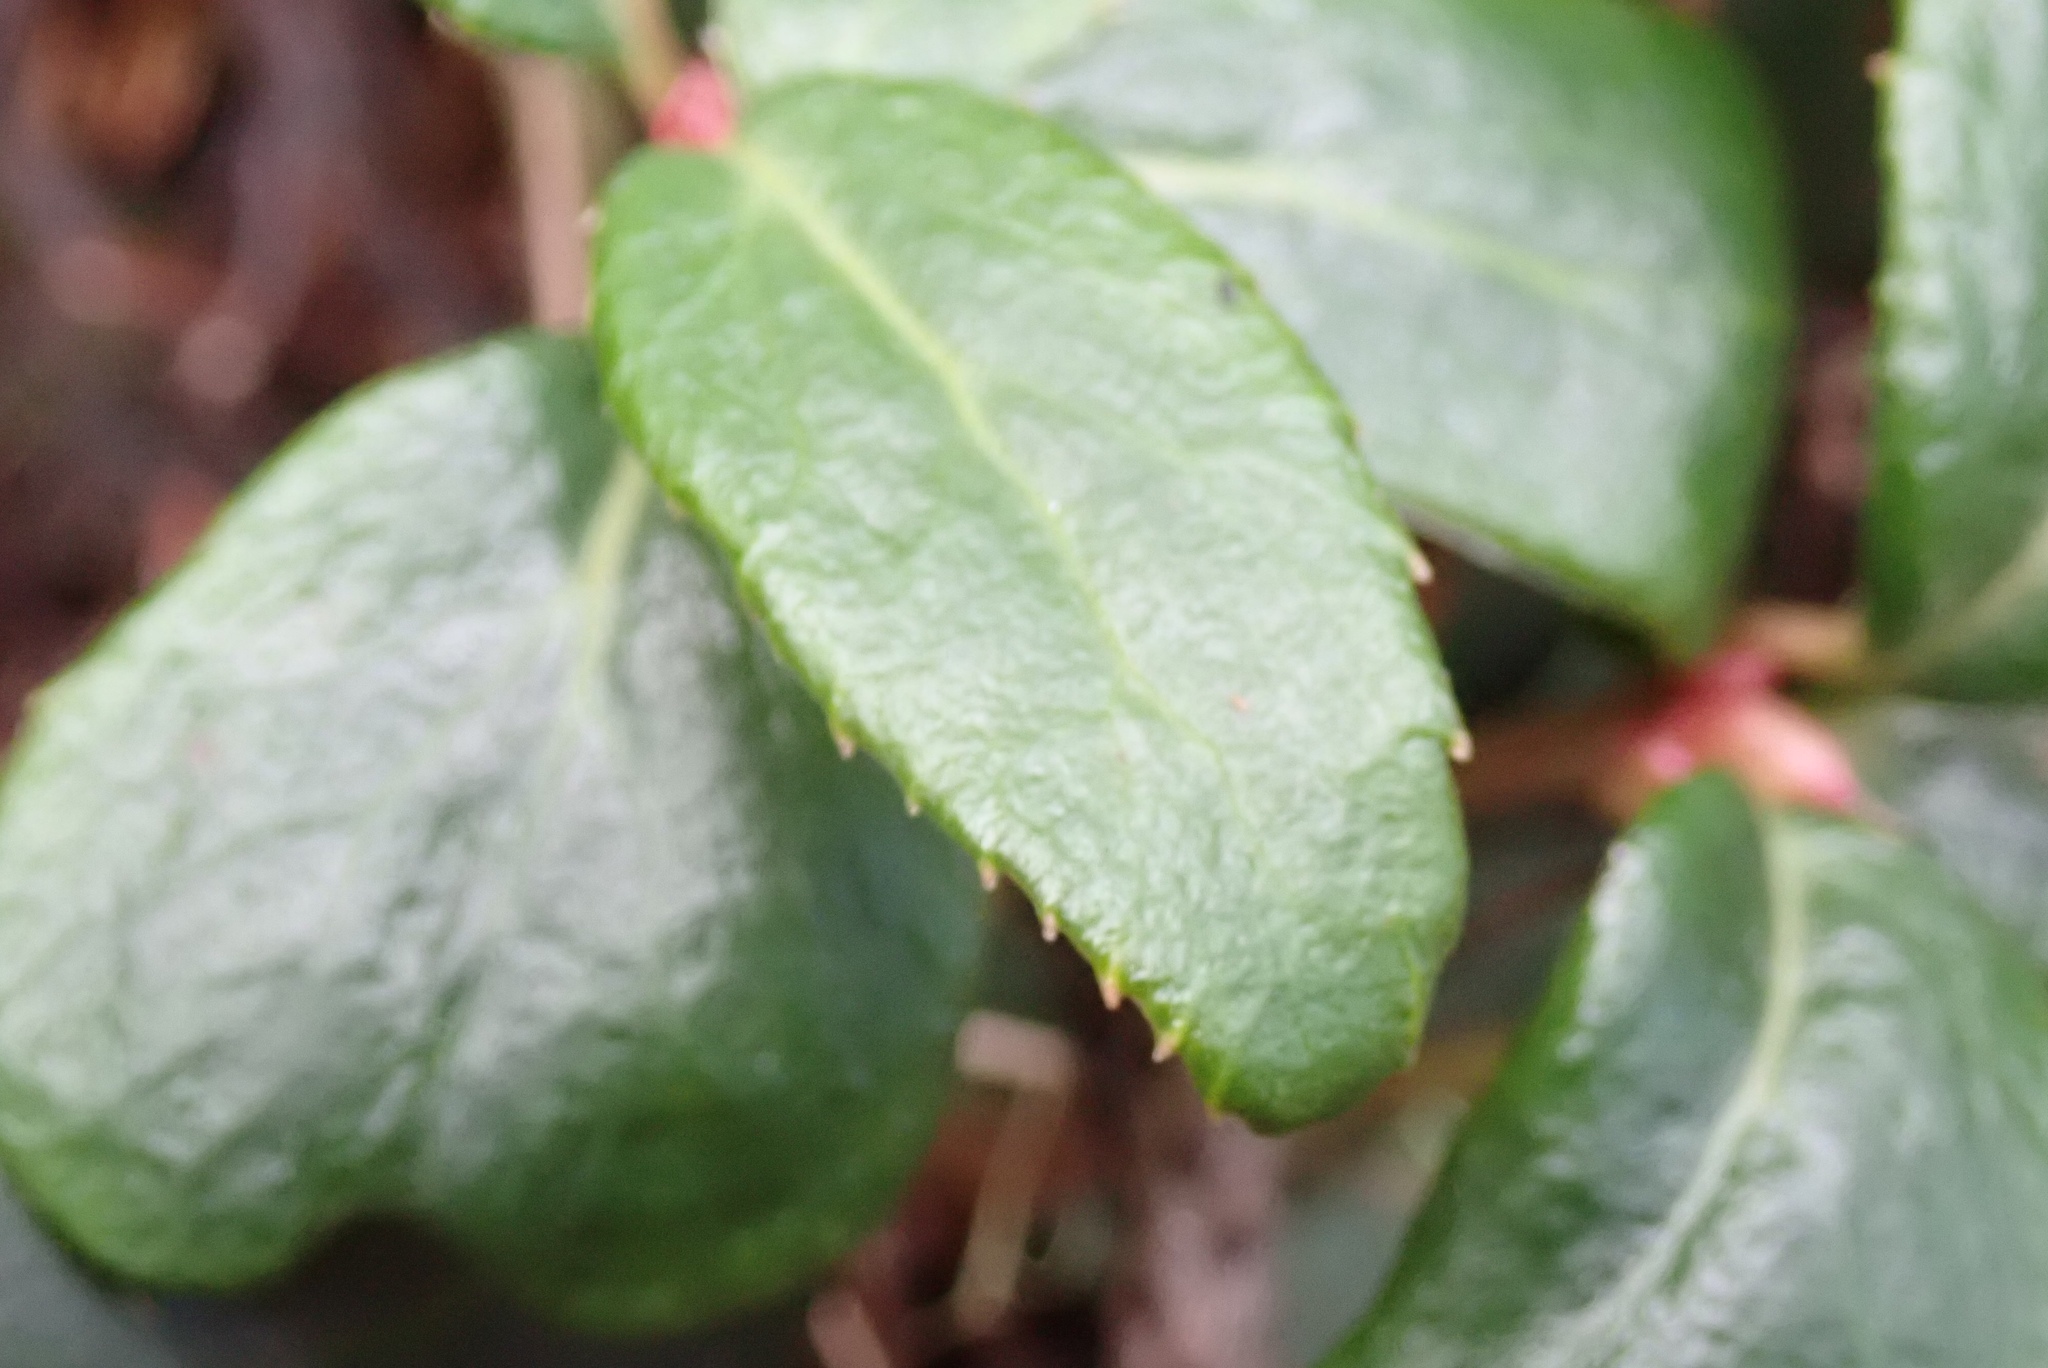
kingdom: Plantae
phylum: Tracheophyta
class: Magnoliopsida
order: Ericales
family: Ericaceae
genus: Chimaphila
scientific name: Chimaphila menziesii
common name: Menzies' pipsissewa
